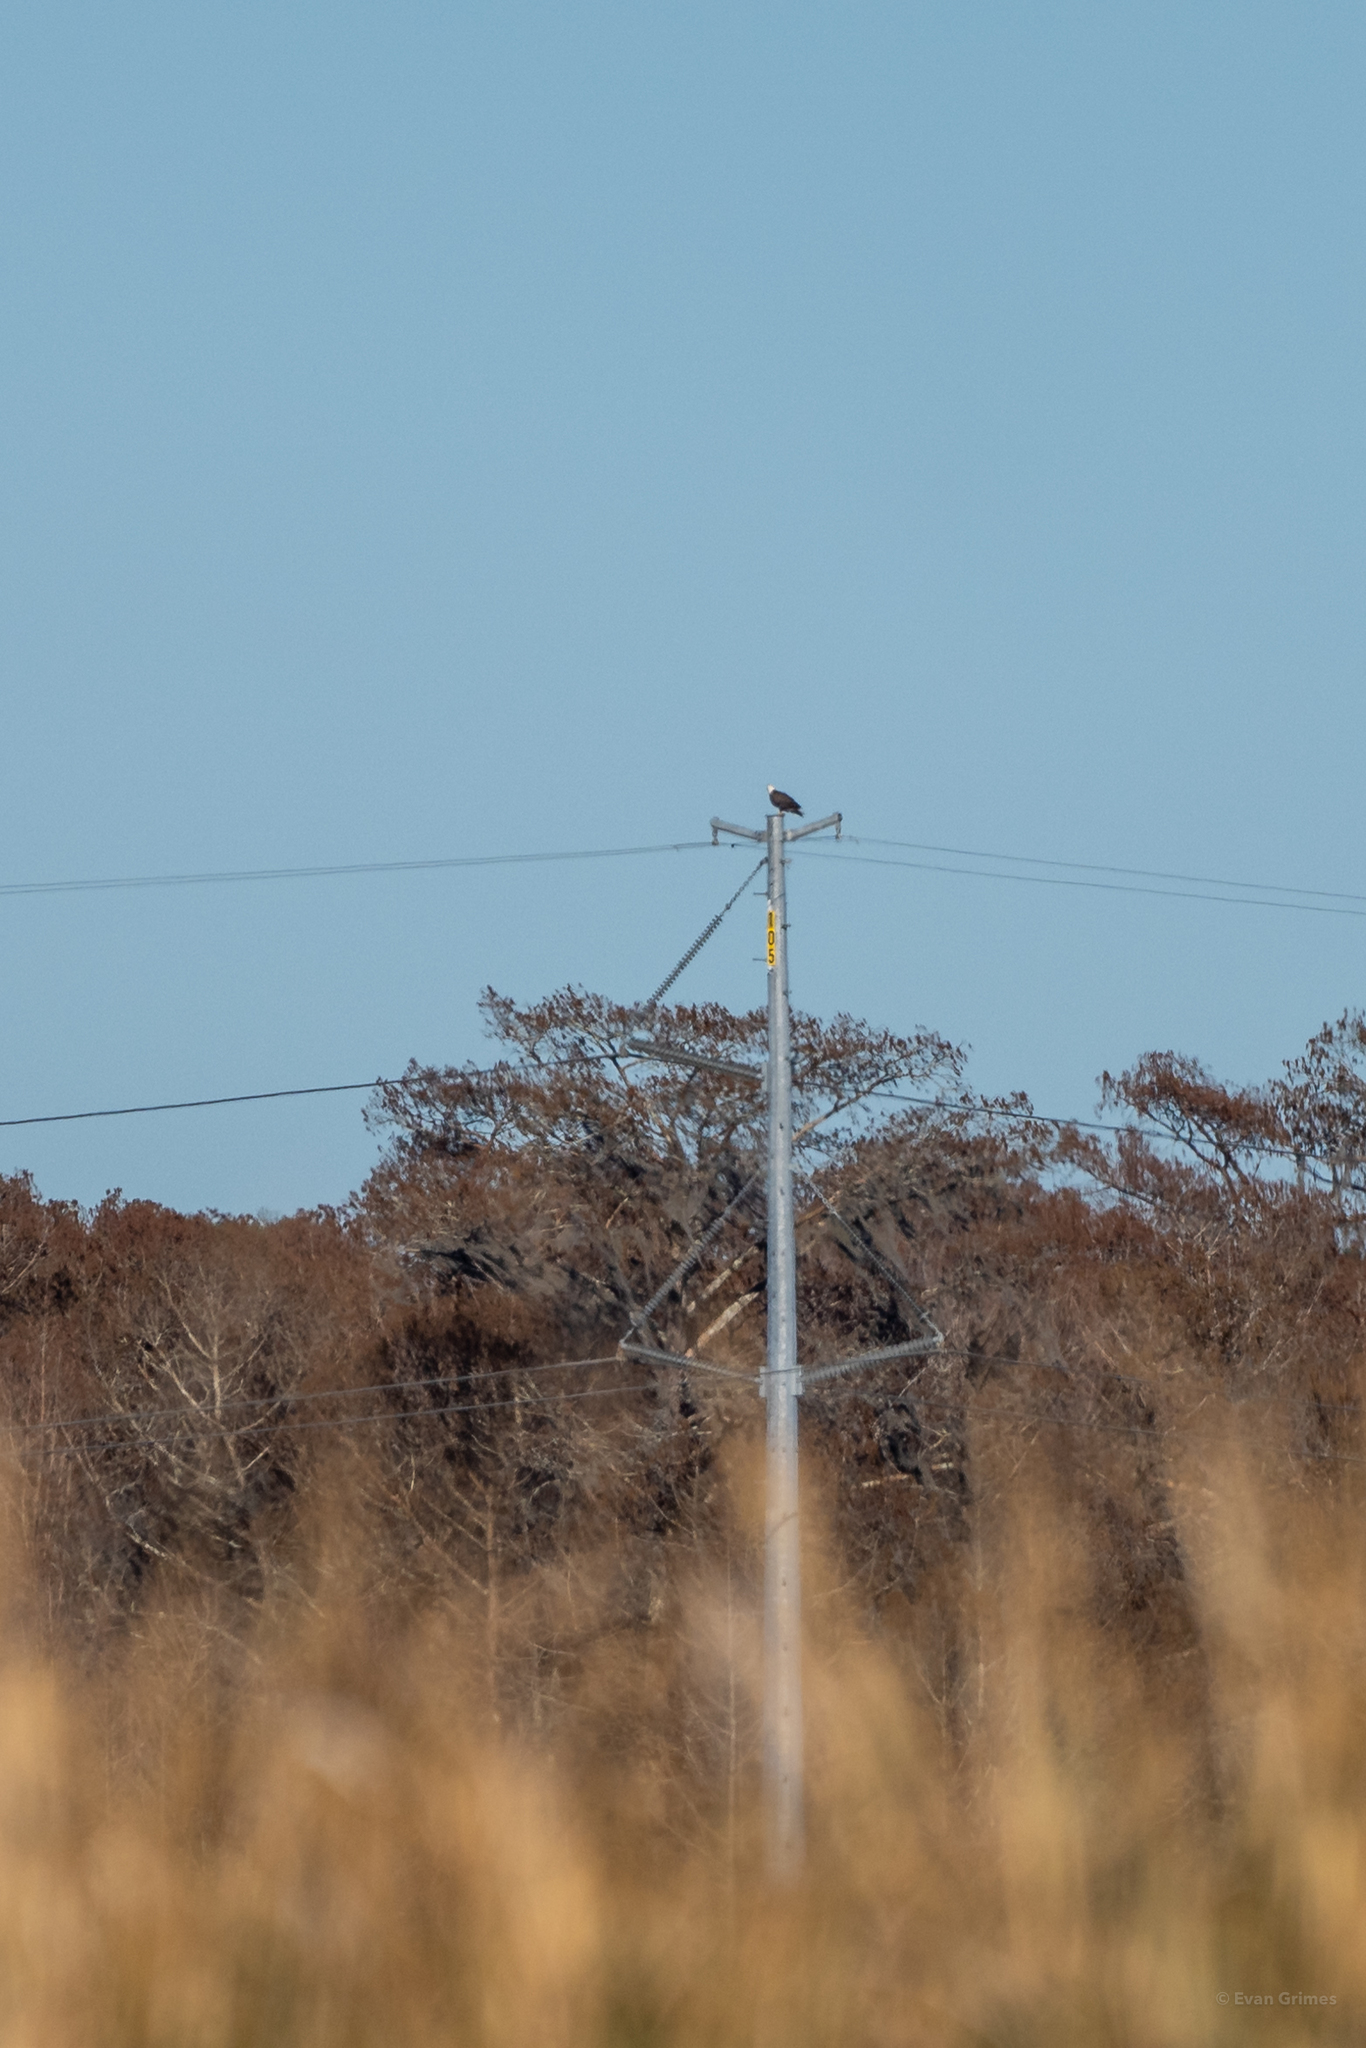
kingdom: Animalia
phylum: Chordata
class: Aves
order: Accipitriformes
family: Accipitridae
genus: Haliaeetus
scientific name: Haliaeetus leucocephalus
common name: Bald eagle
